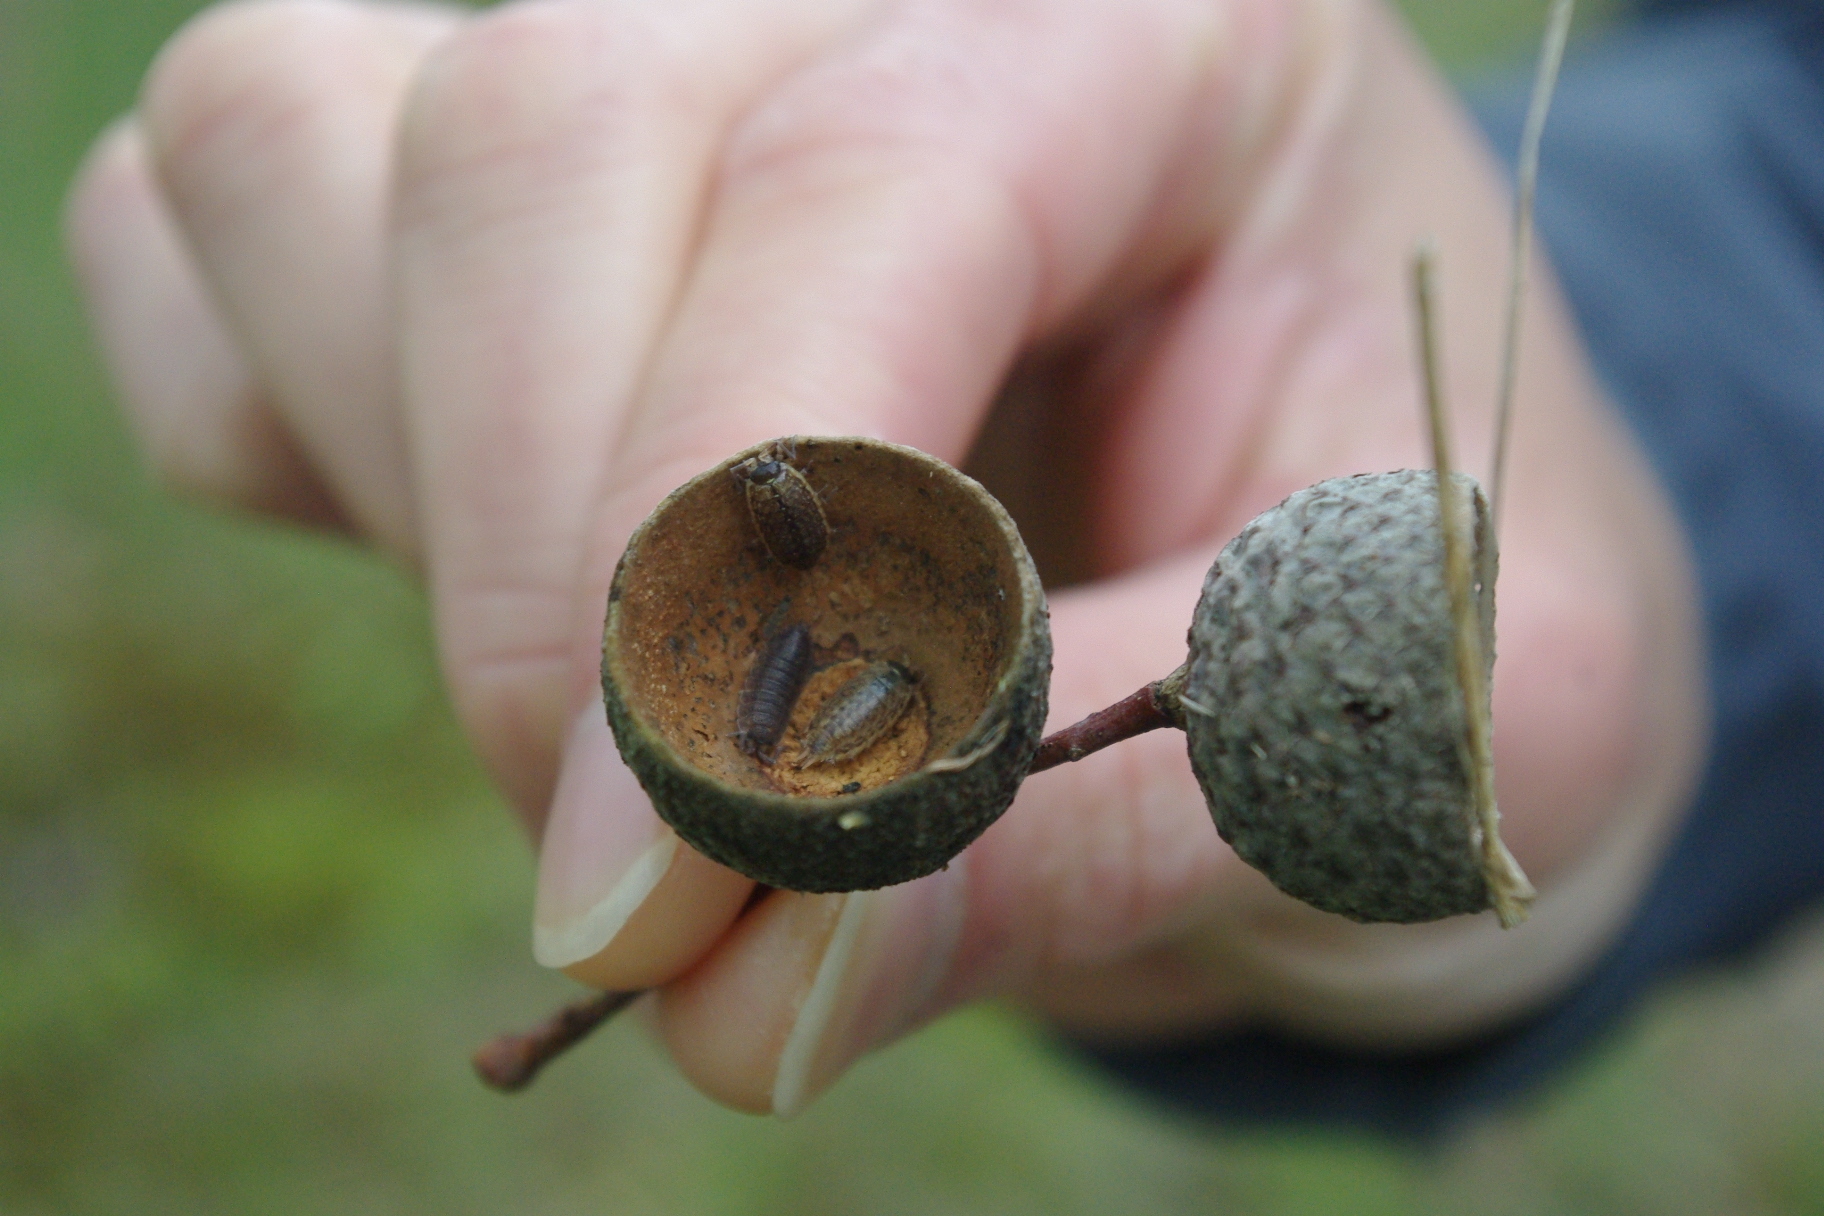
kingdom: Animalia
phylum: Arthropoda
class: Malacostraca
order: Isopoda
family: Philosciidae
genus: Philoscia
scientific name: Philoscia muscorum
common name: Common striped woodlouse
